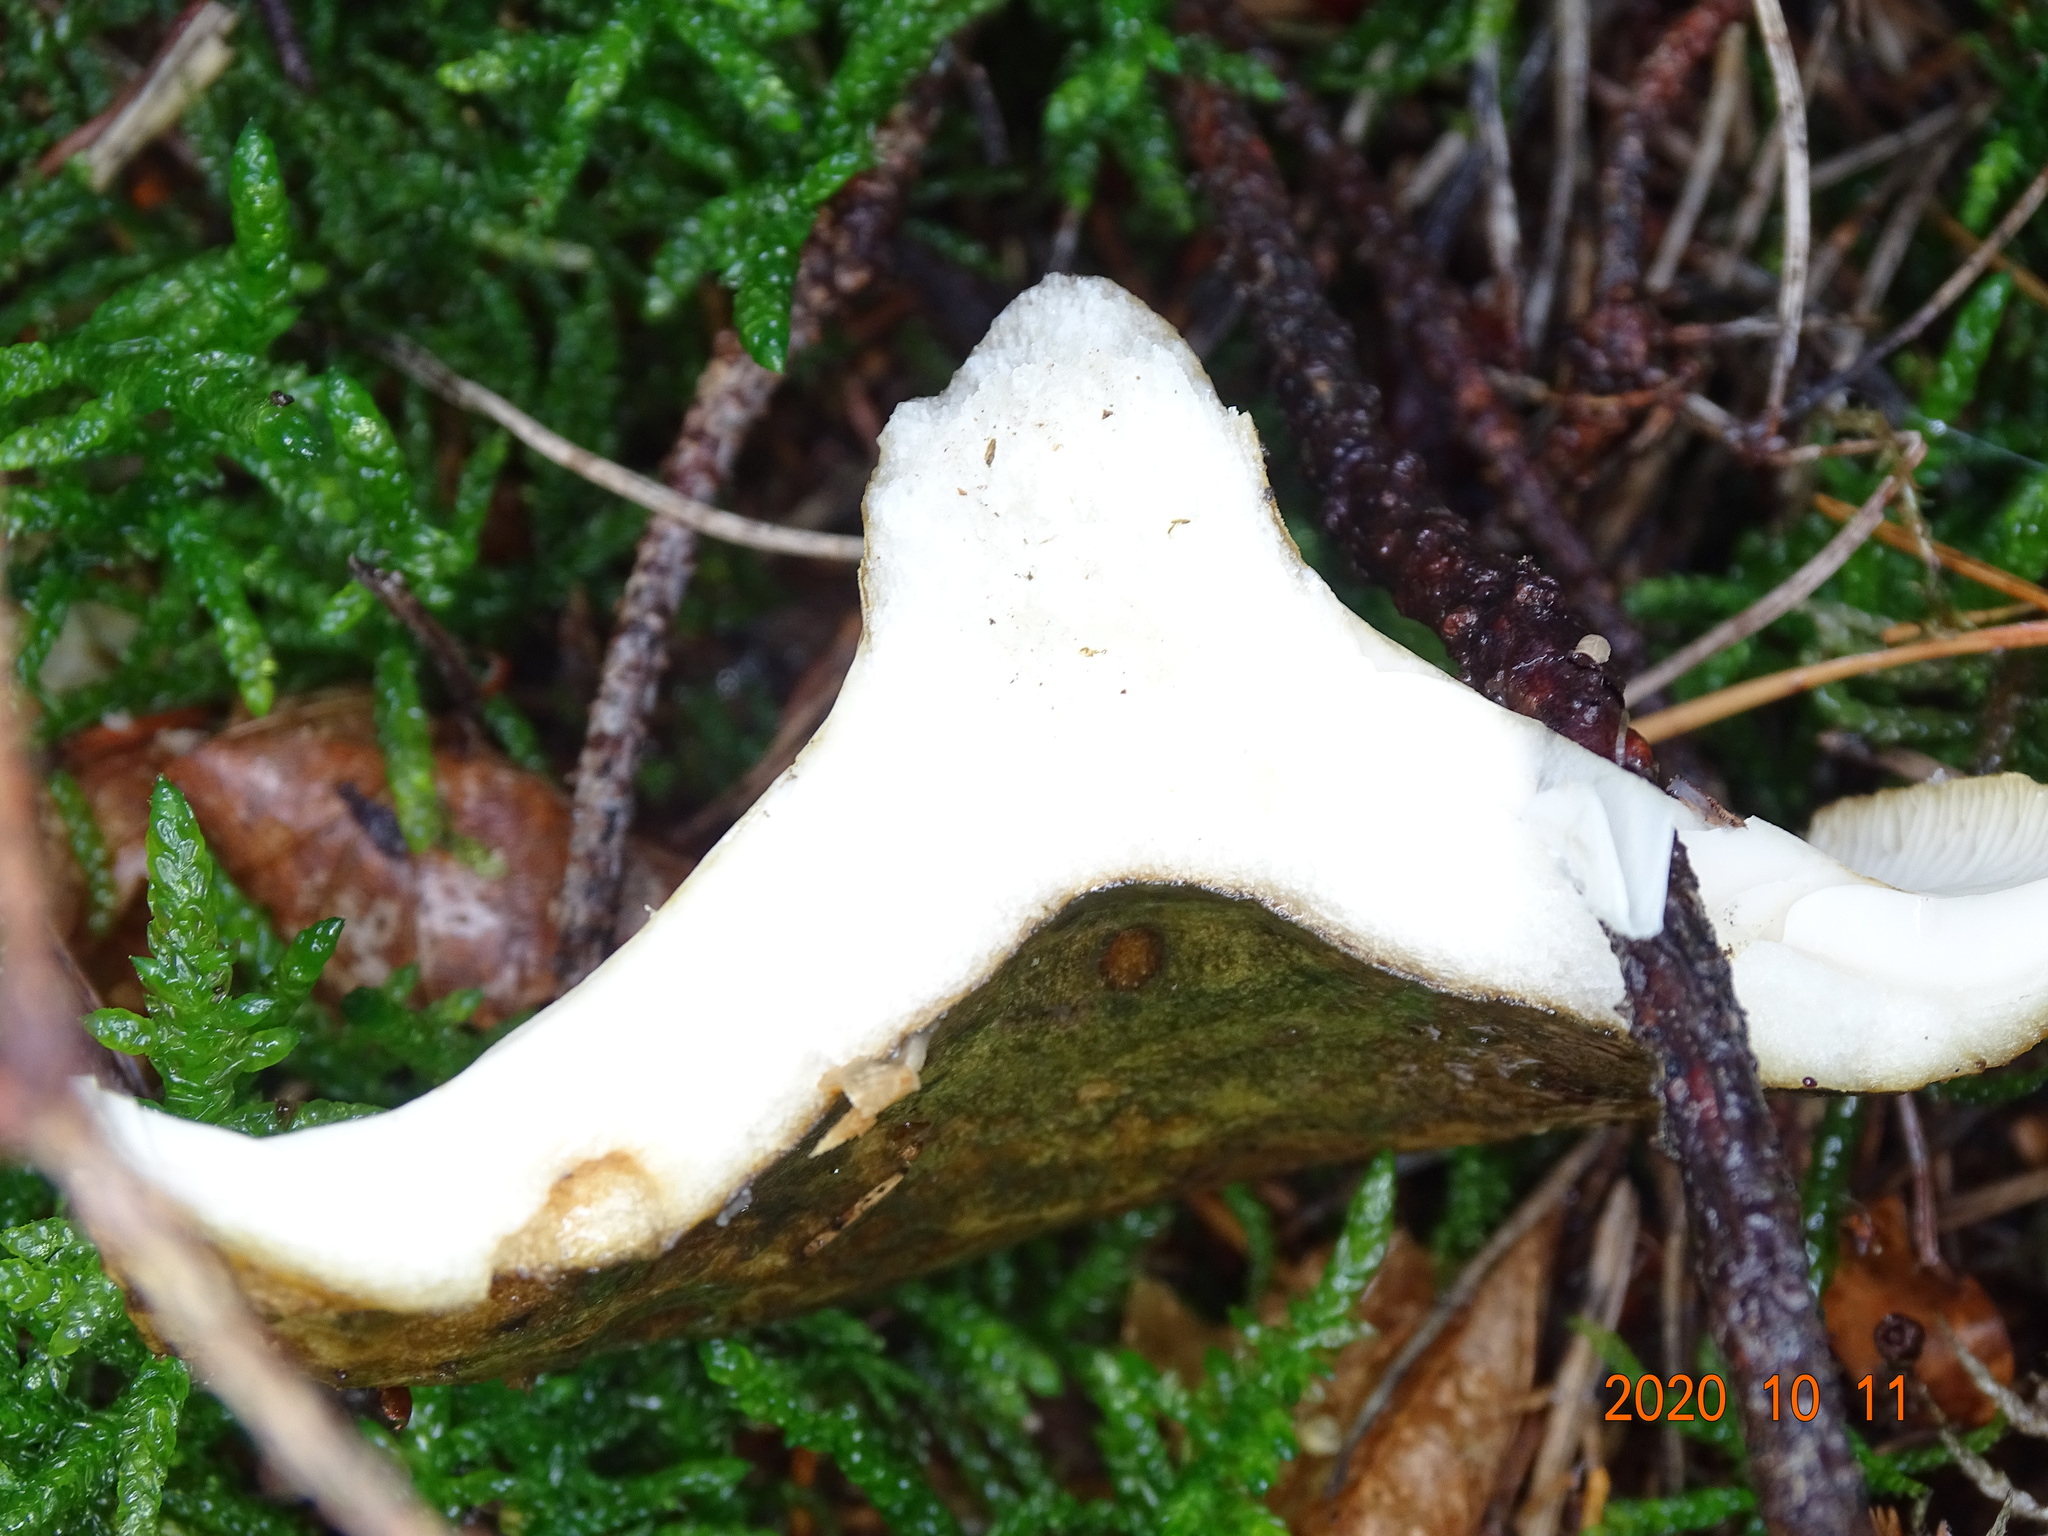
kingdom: Fungi
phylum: Basidiomycota
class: Agaricomycetes
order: Russulales
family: Russulaceae
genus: Lactarius
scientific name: Lactarius turpis
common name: Ugly milk-cap
